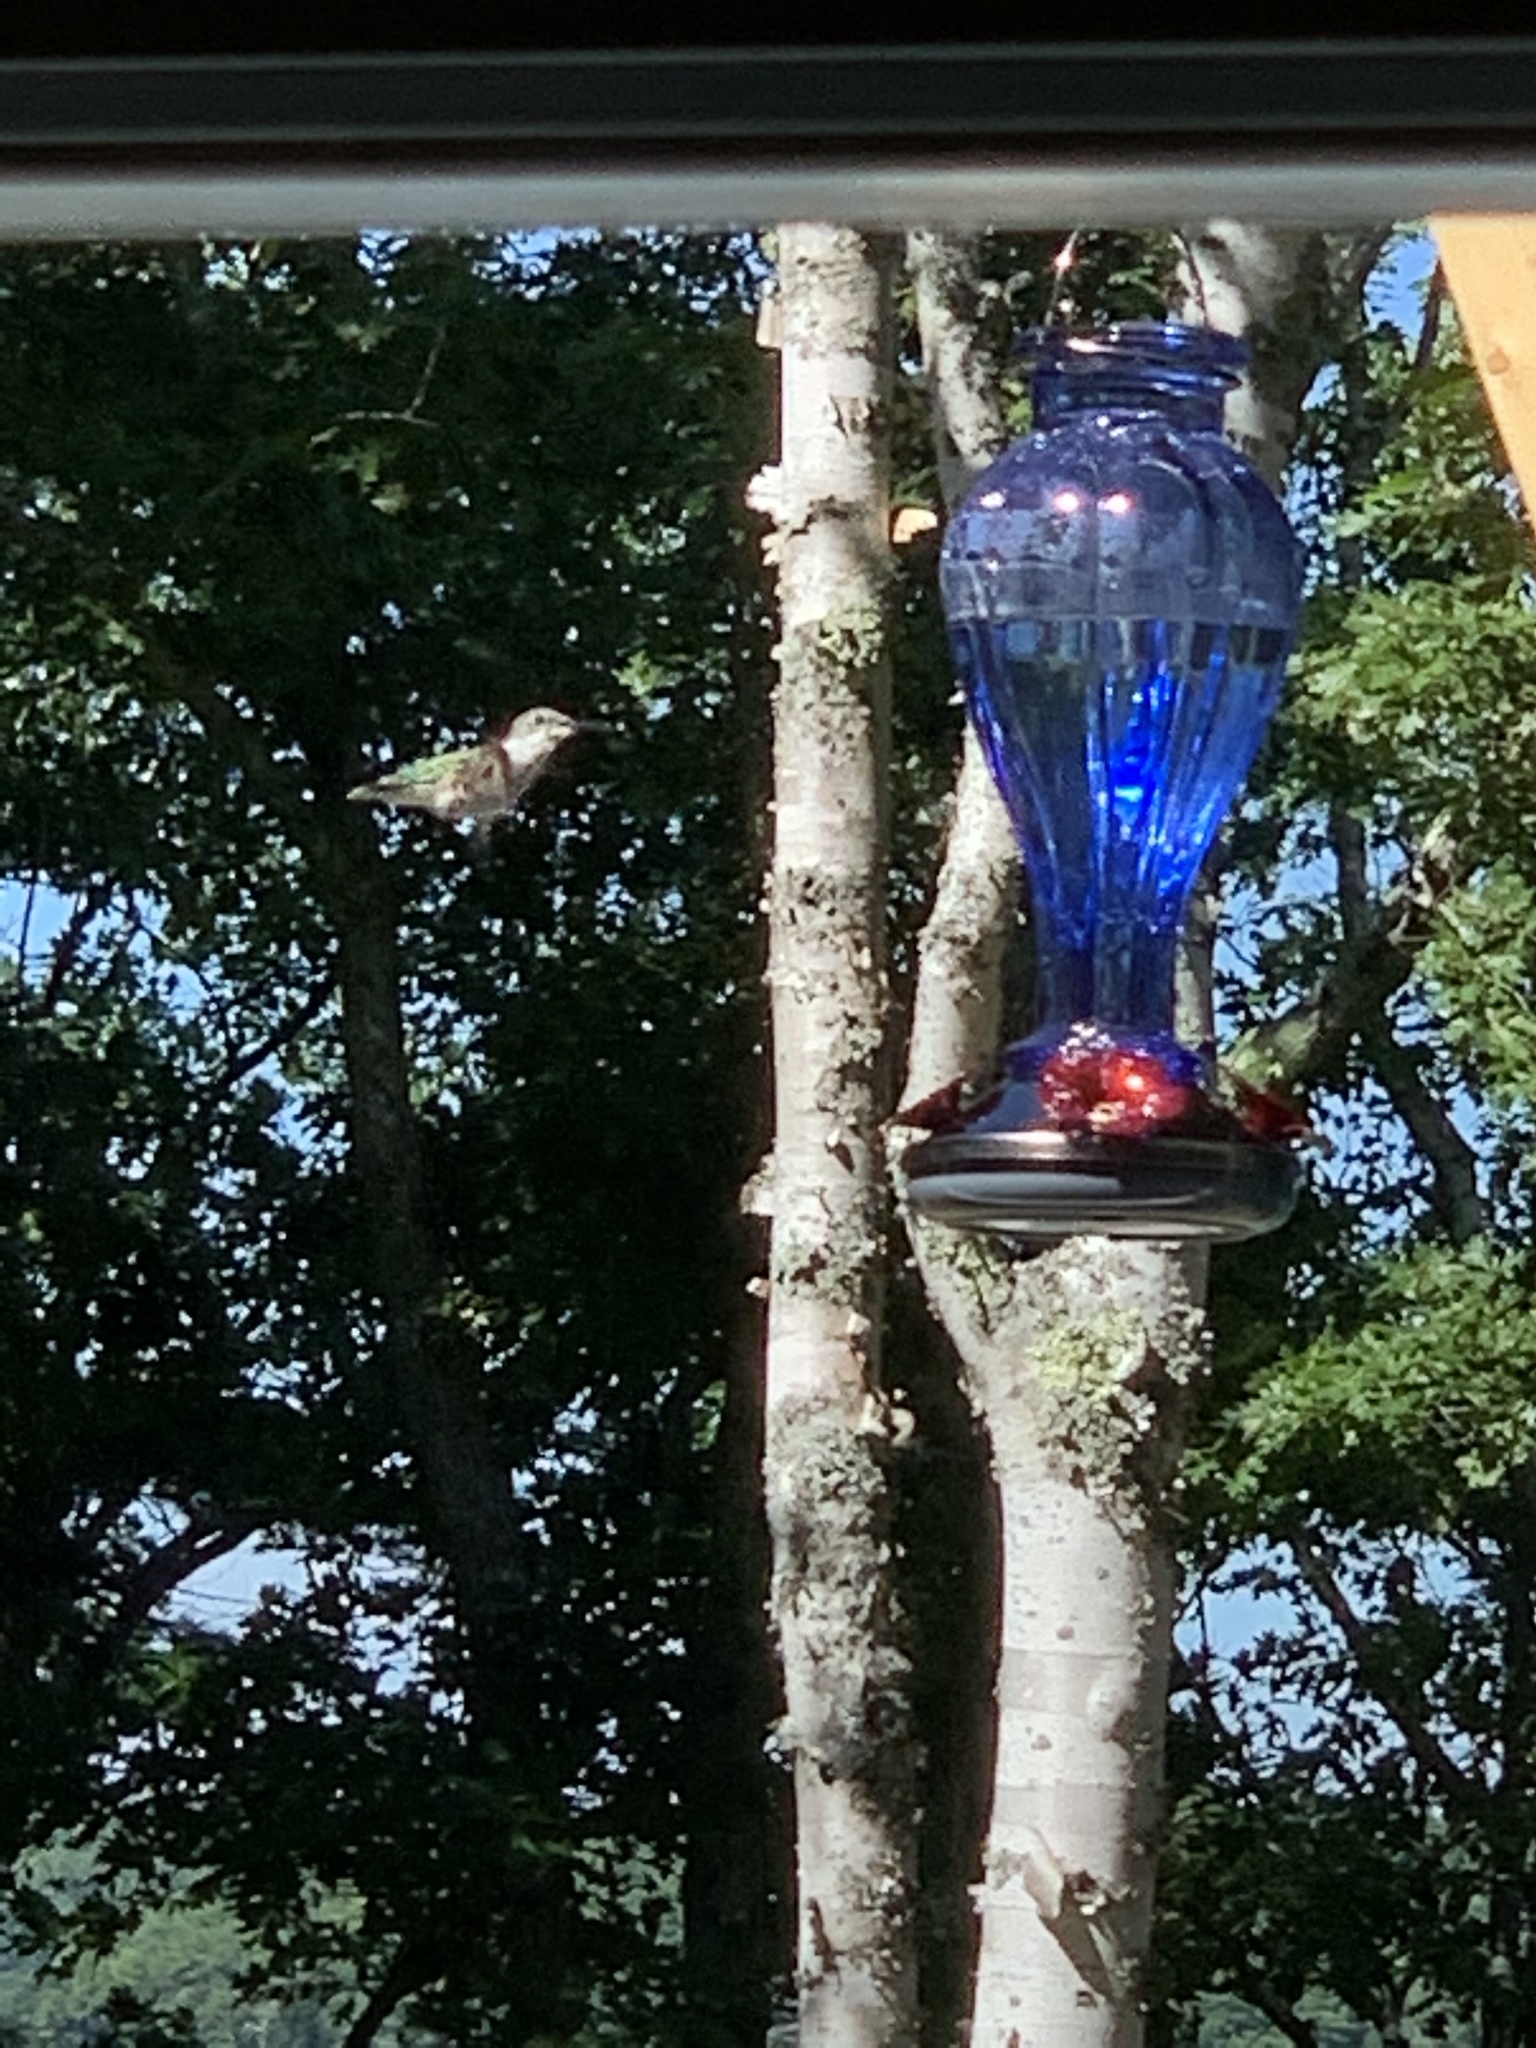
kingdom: Animalia
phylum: Chordata
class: Aves
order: Apodiformes
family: Trochilidae
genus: Archilochus
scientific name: Archilochus colubris
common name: Ruby-throated hummingbird
